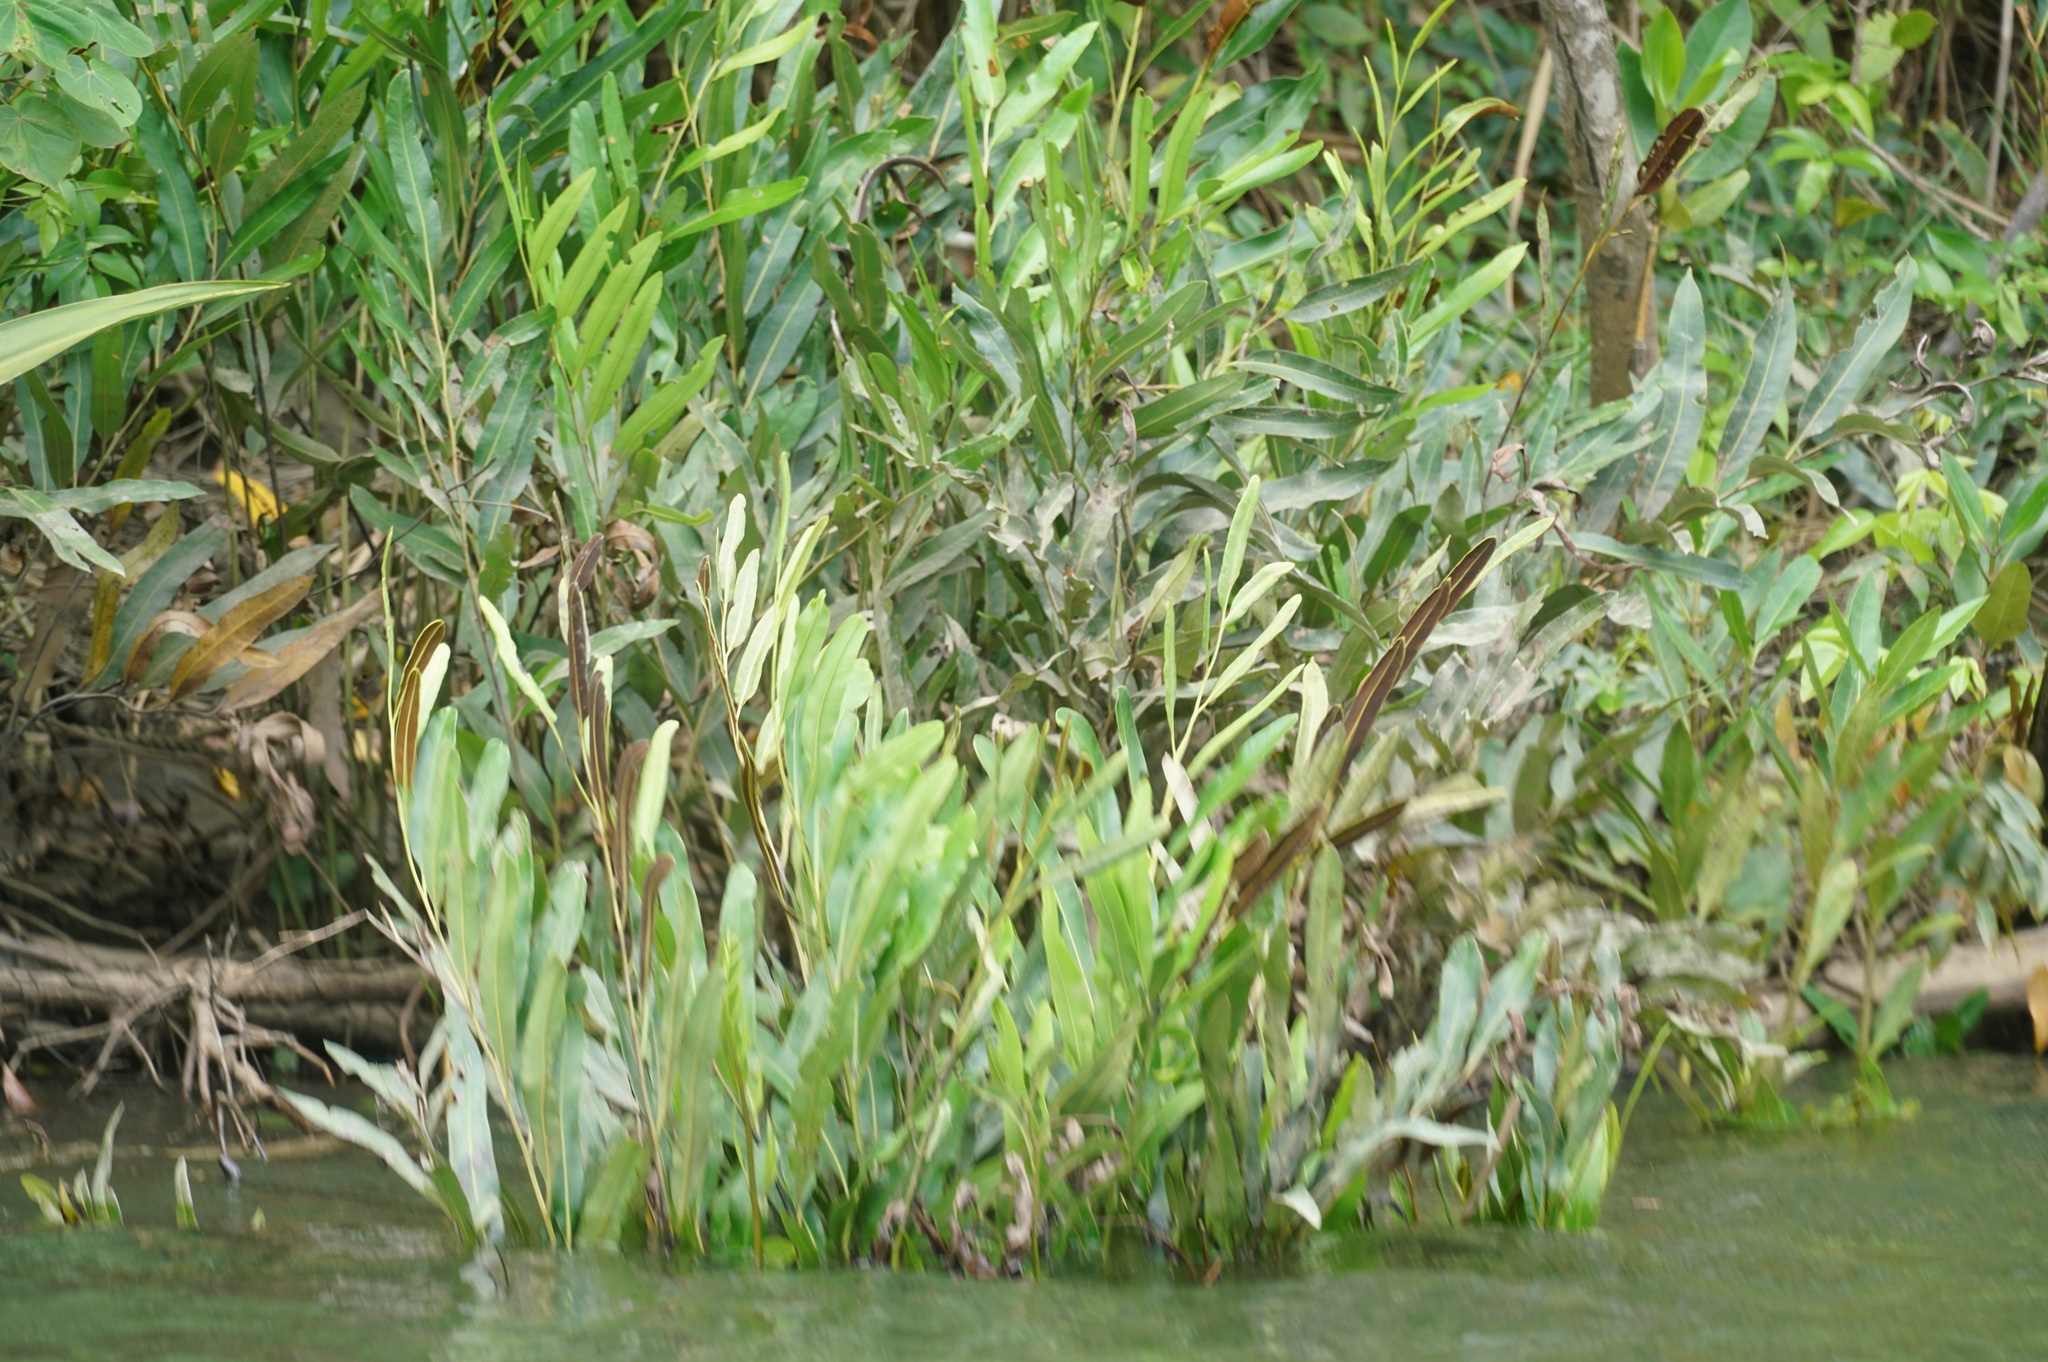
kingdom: Plantae
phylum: Tracheophyta
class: Polypodiopsida
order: Polypodiales
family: Pteridaceae
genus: Acrostichum
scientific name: Acrostichum speciosum
